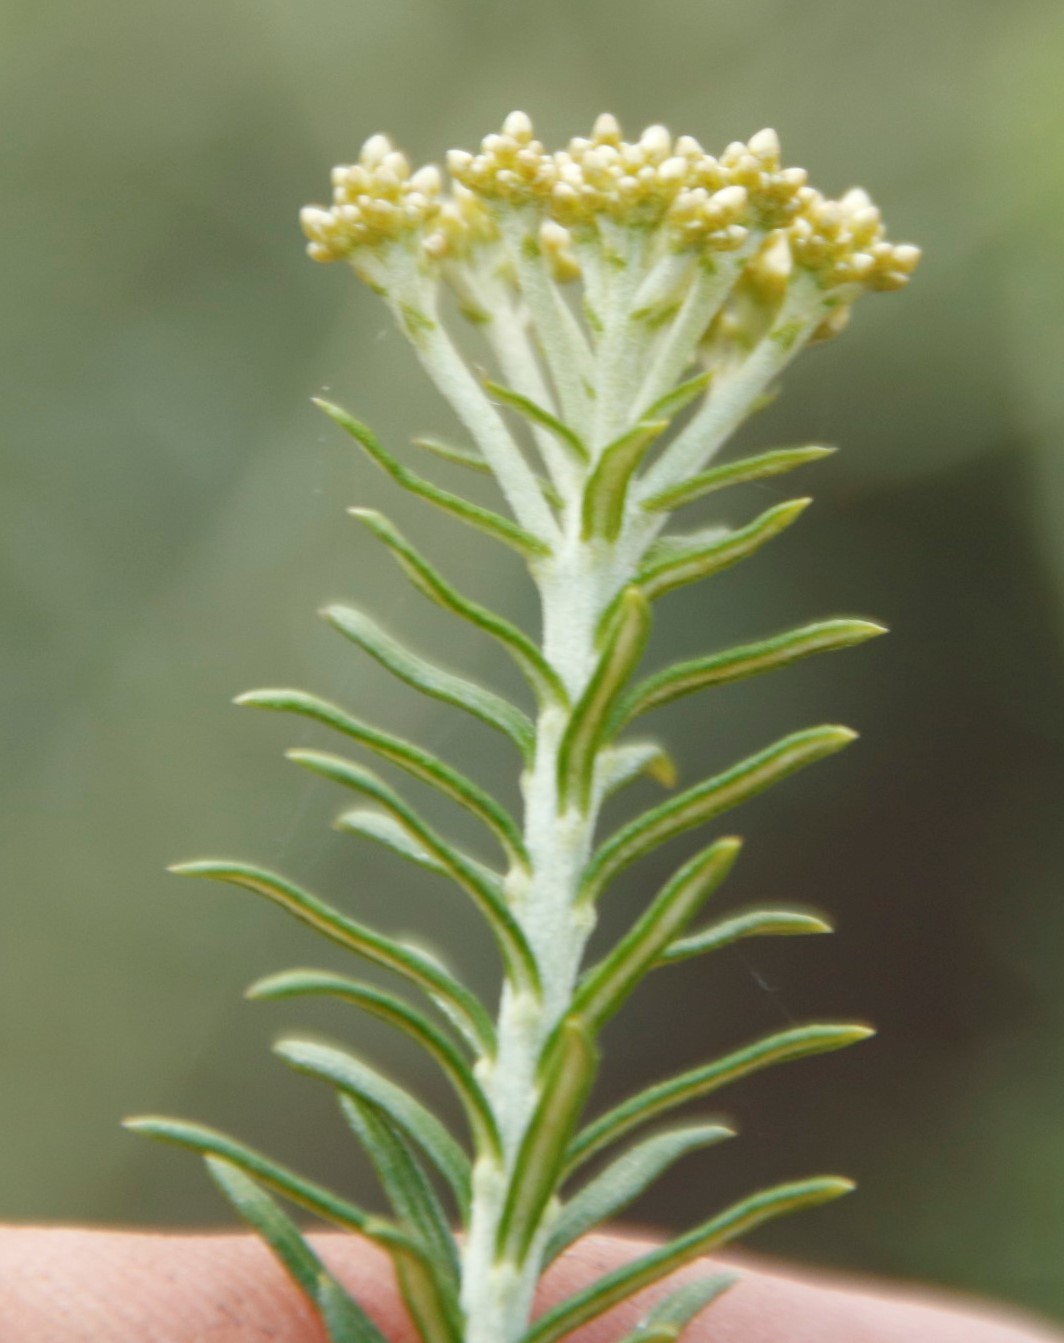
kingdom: Plantae
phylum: Tracheophyta
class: Magnoliopsida
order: Asterales
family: Asteraceae
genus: Helichrysum
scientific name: Helichrysum kraussii
